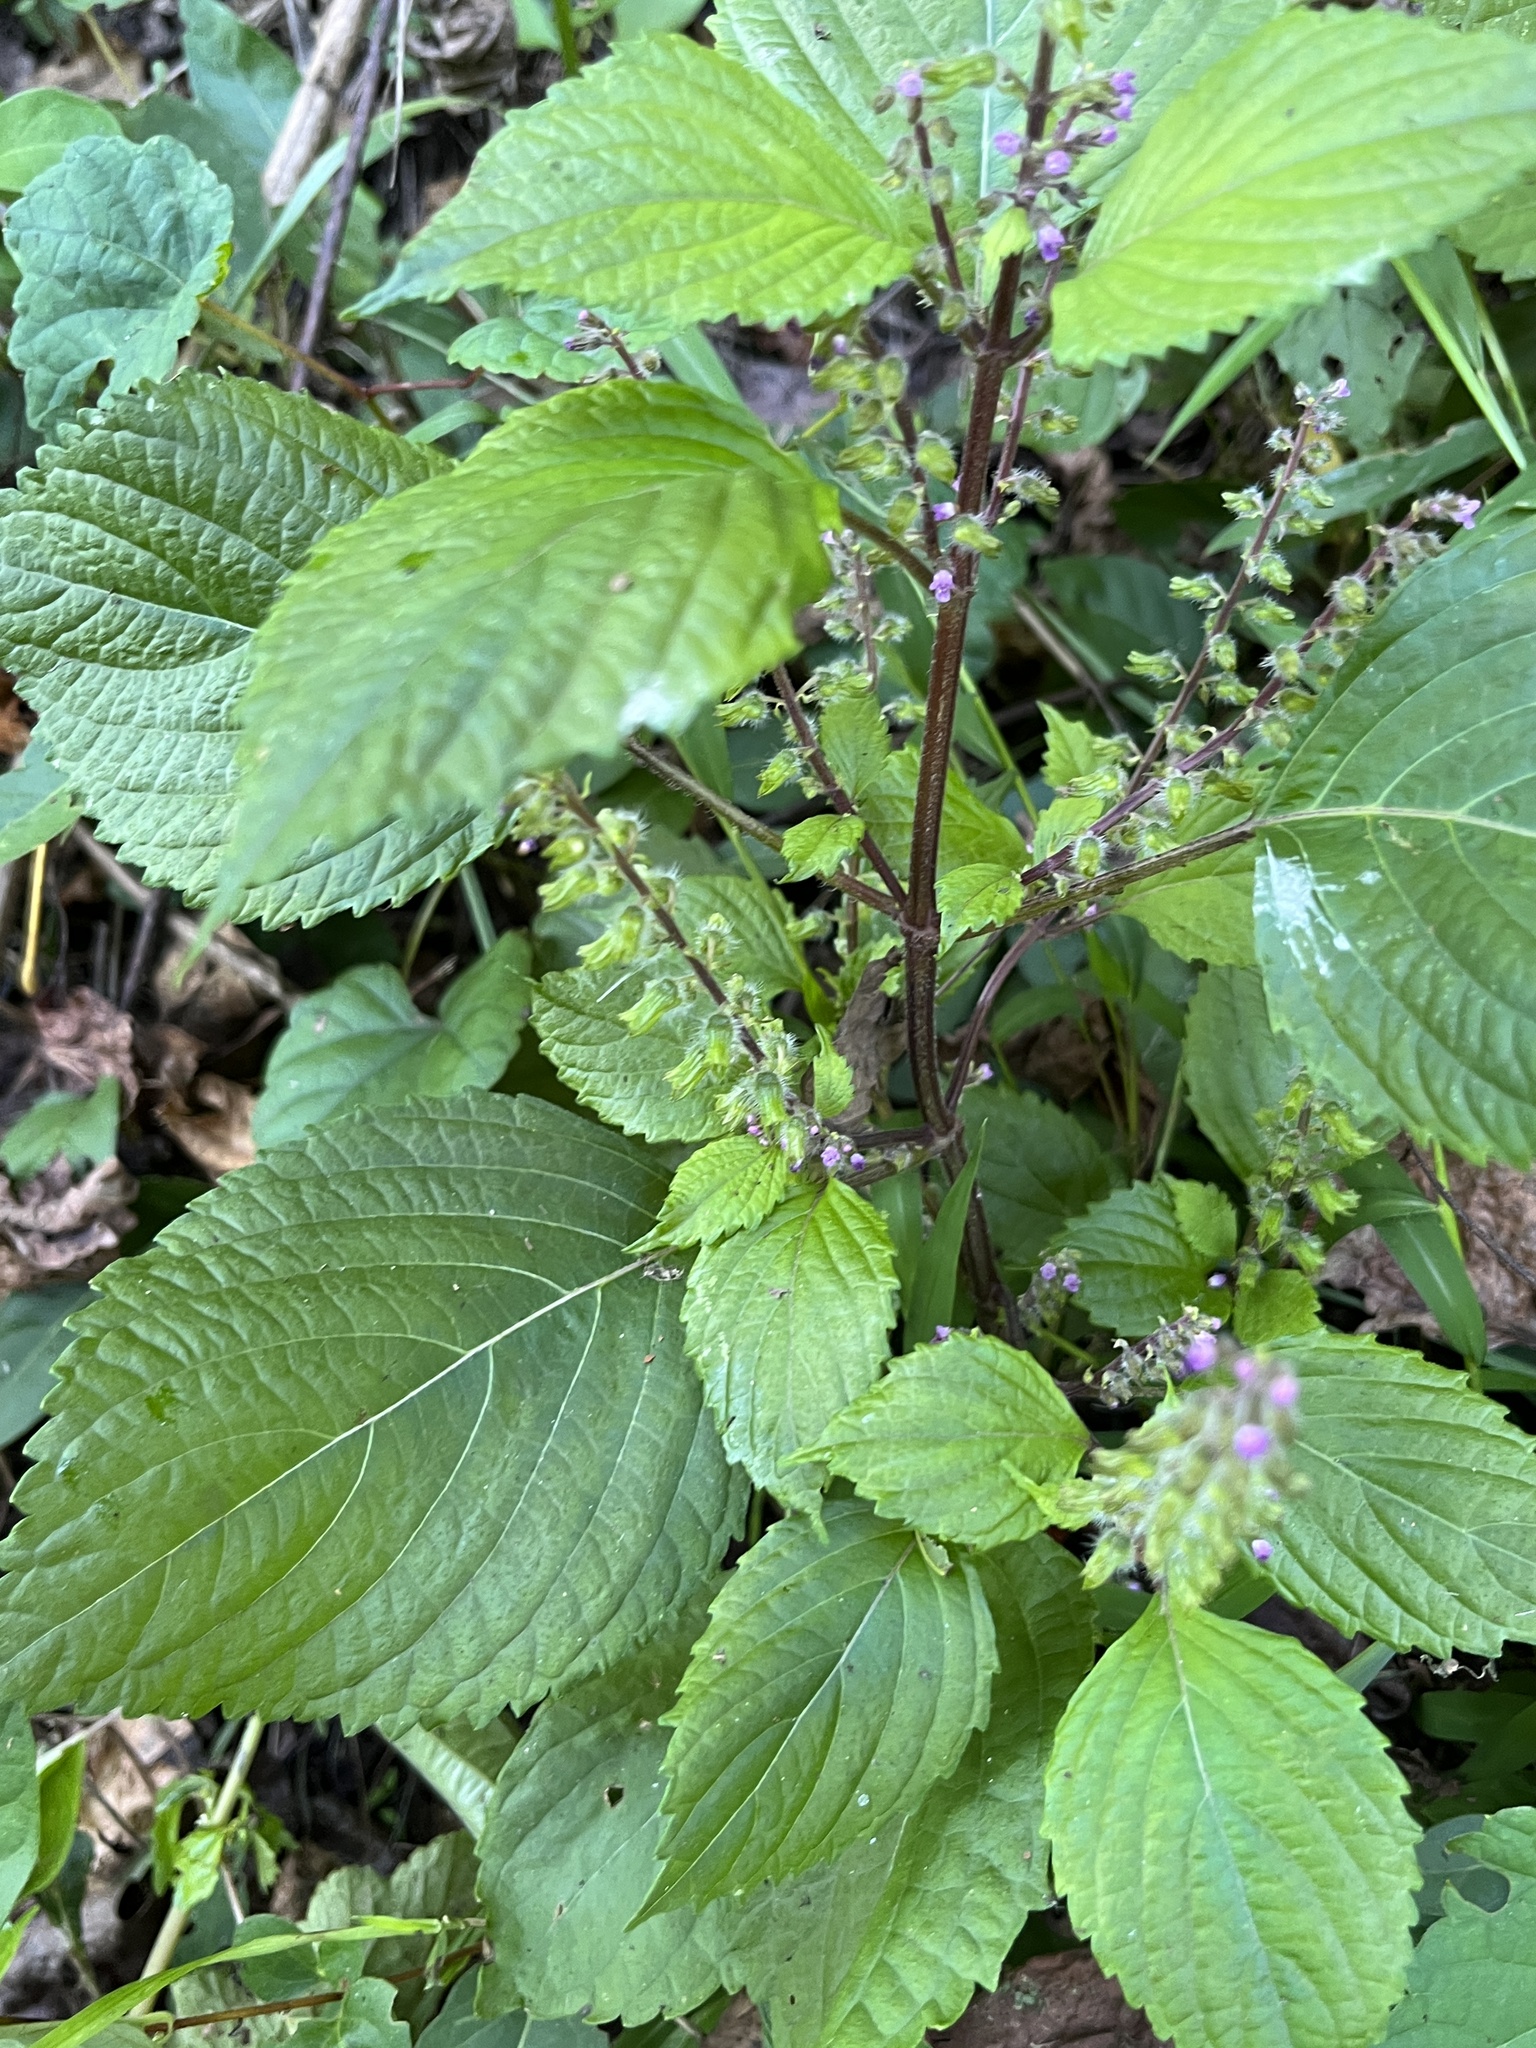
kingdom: Plantae
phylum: Tracheophyta
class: Magnoliopsida
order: Lamiales
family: Lamiaceae
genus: Perilla
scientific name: Perilla frutescens
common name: Perilla
